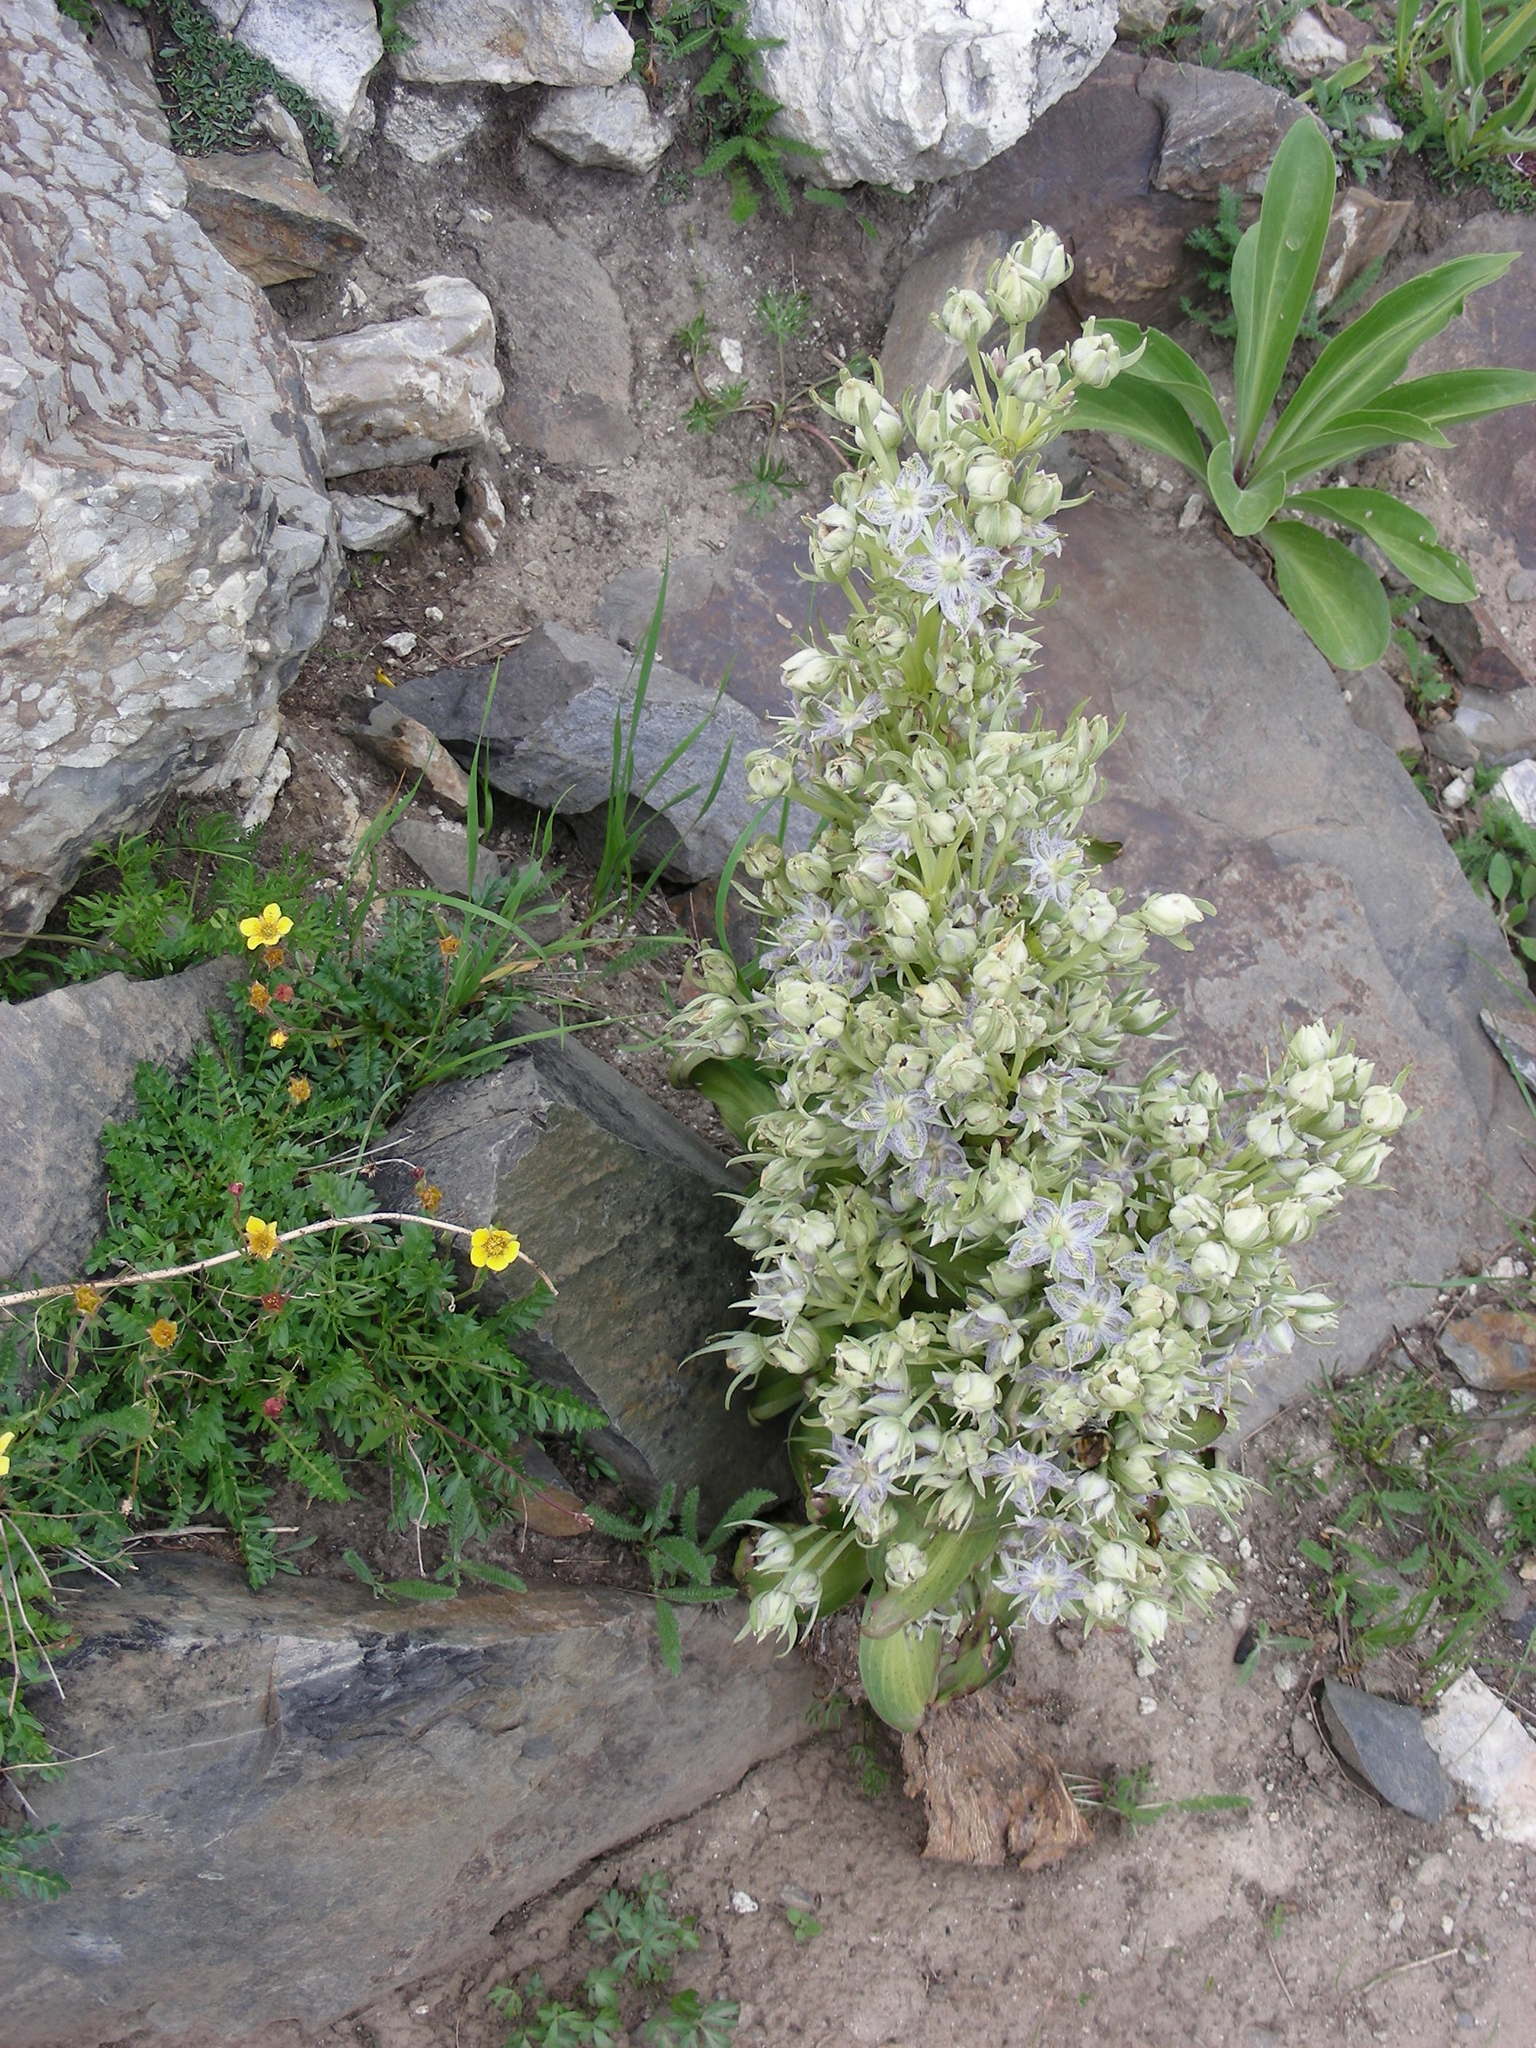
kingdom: Plantae
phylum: Tracheophyta
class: Magnoliopsida
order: Gentianales
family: Gentianaceae
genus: Frasera
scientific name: Frasera speciosa
